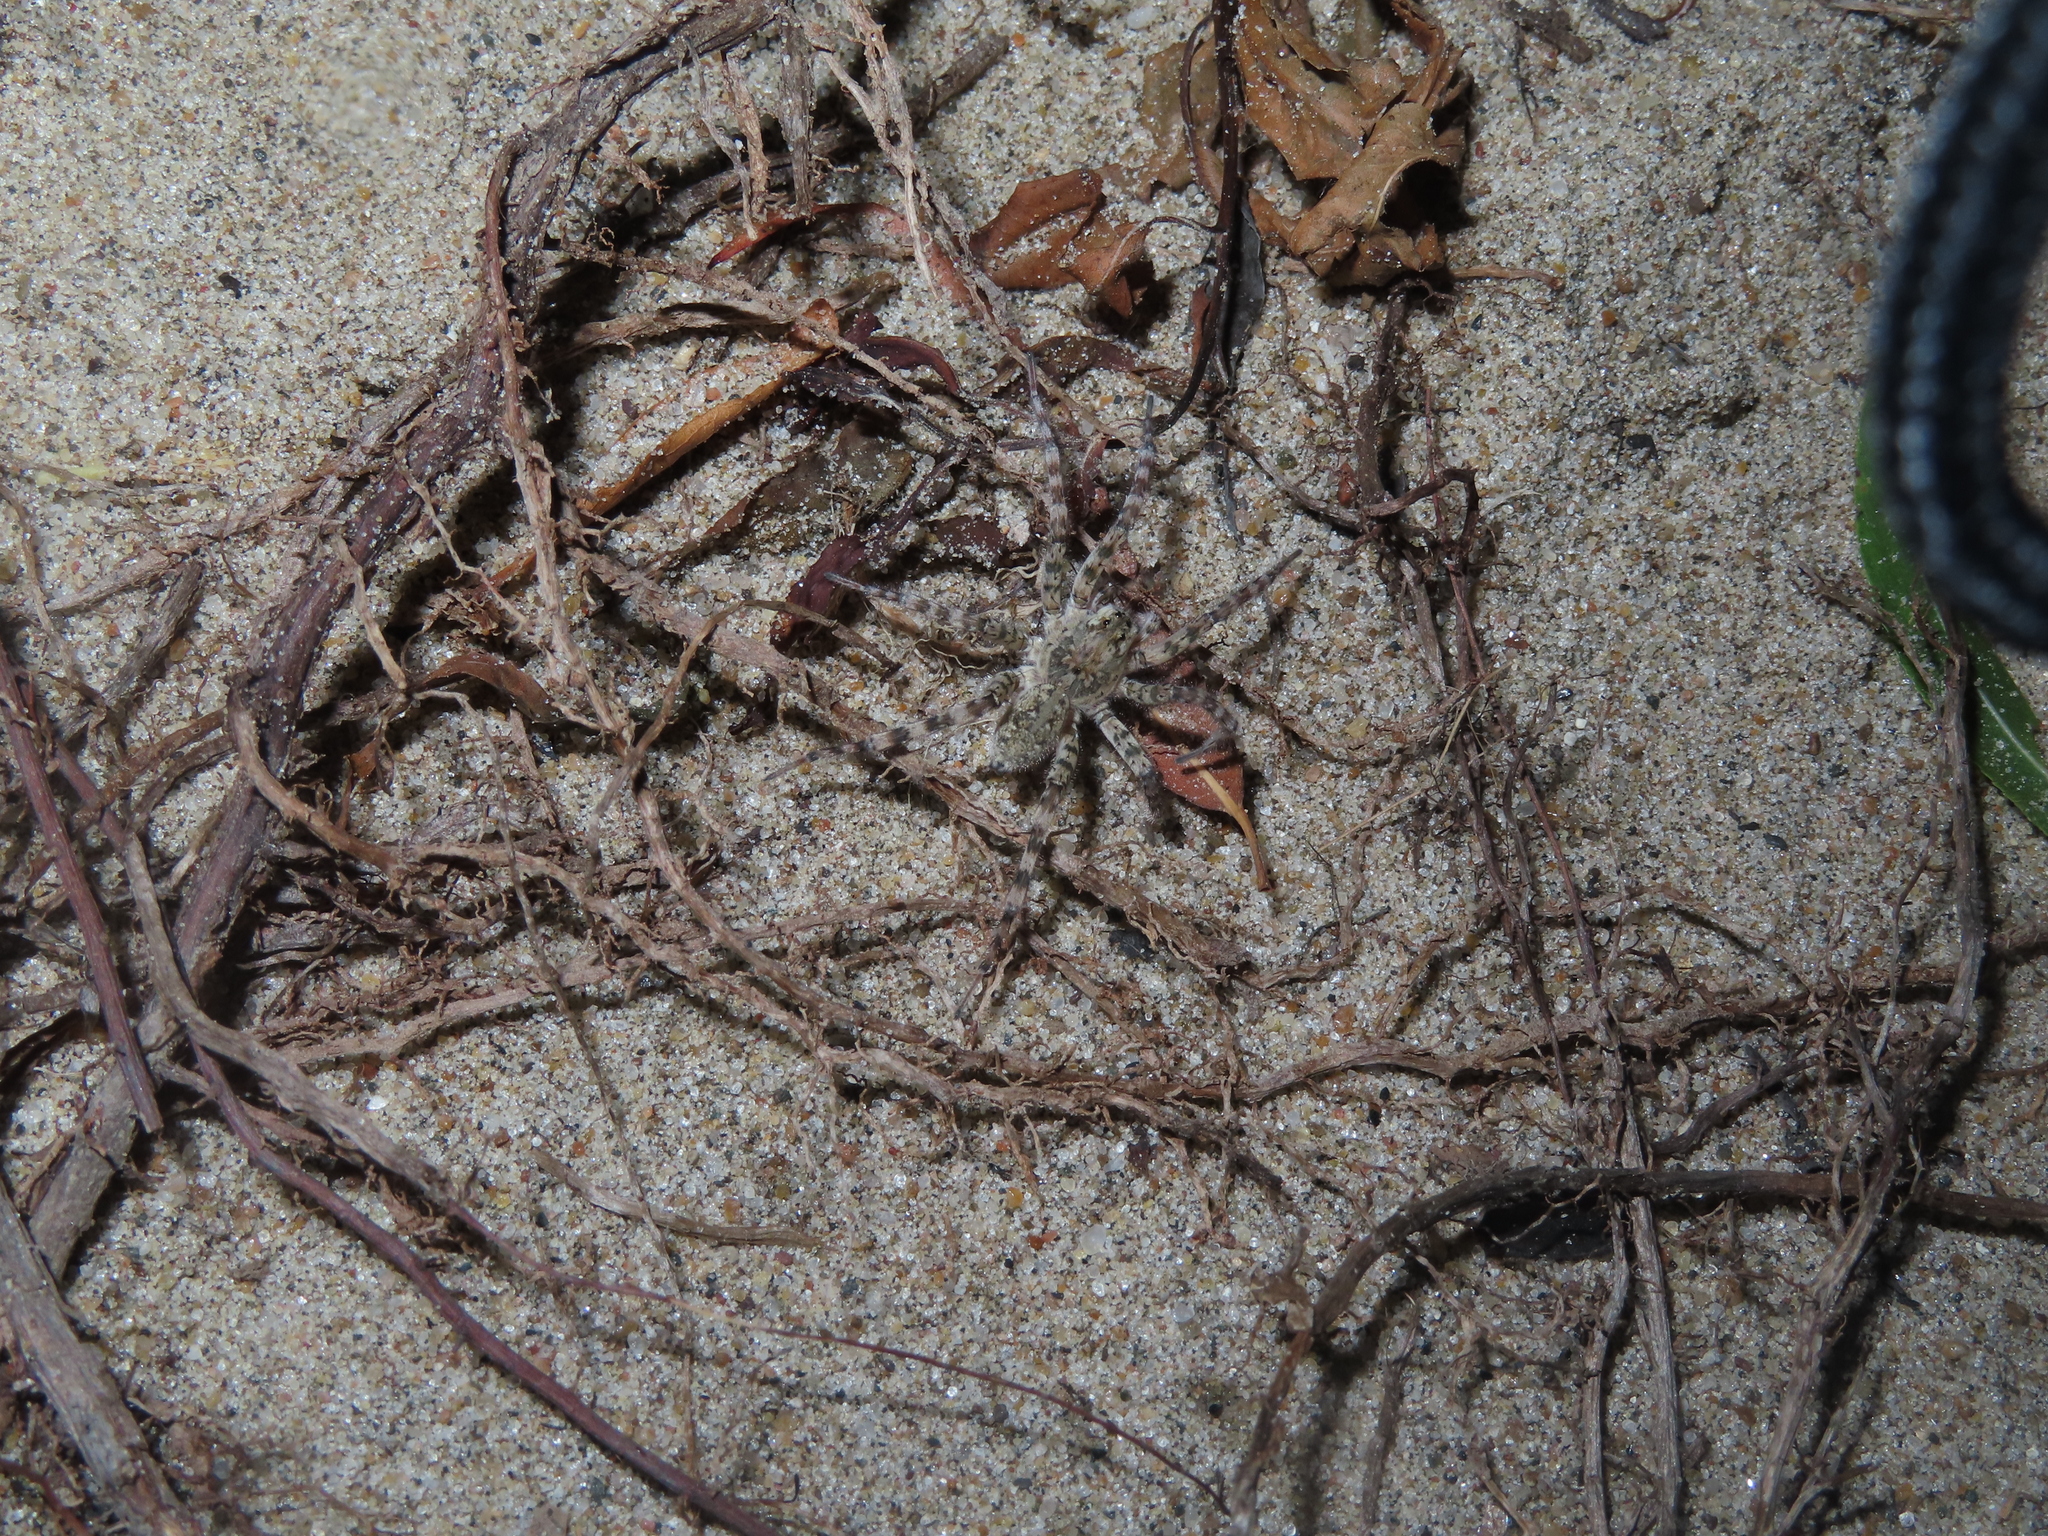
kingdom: Animalia
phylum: Arthropoda
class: Arachnida
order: Araneae
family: Lycosidae
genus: Arctosa
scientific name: Arctosa littoralis
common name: Wolf spiders
